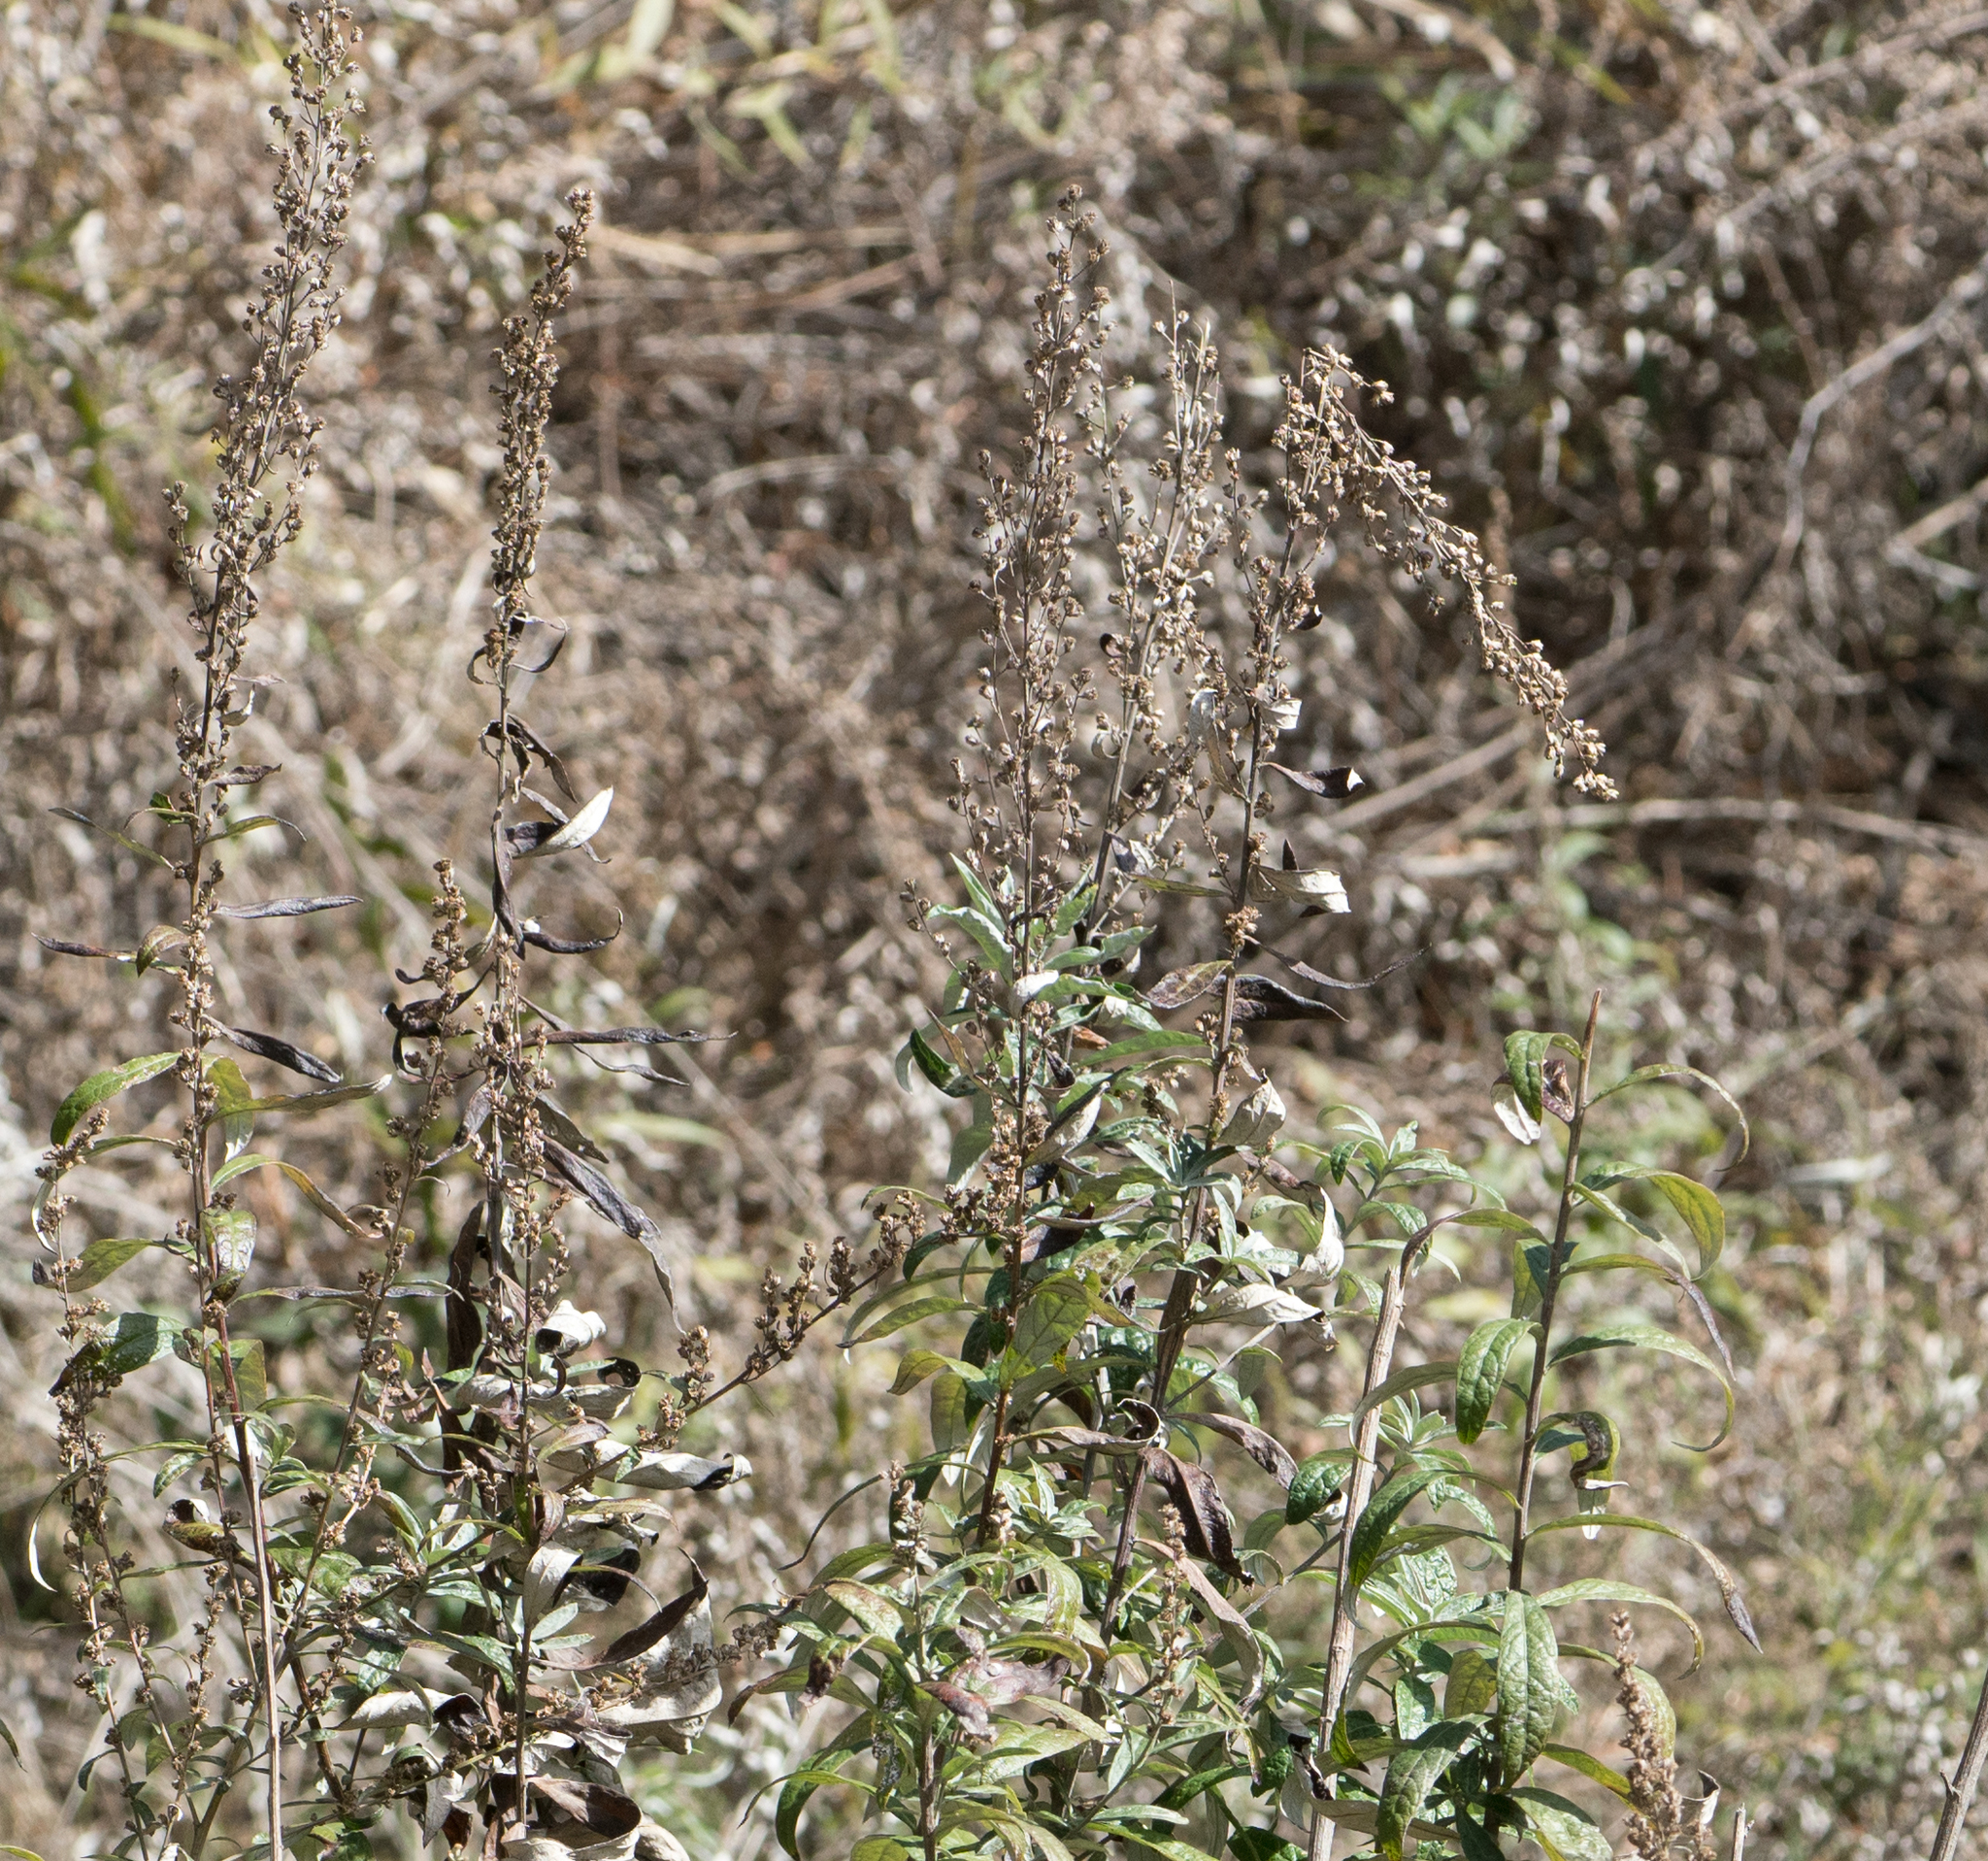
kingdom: Plantae
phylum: Tracheophyta
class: Magnoliopsida
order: Asterales
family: Asteraceae
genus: Artemisia
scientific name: Artemisia douglasiana
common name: Northwest mugwort
